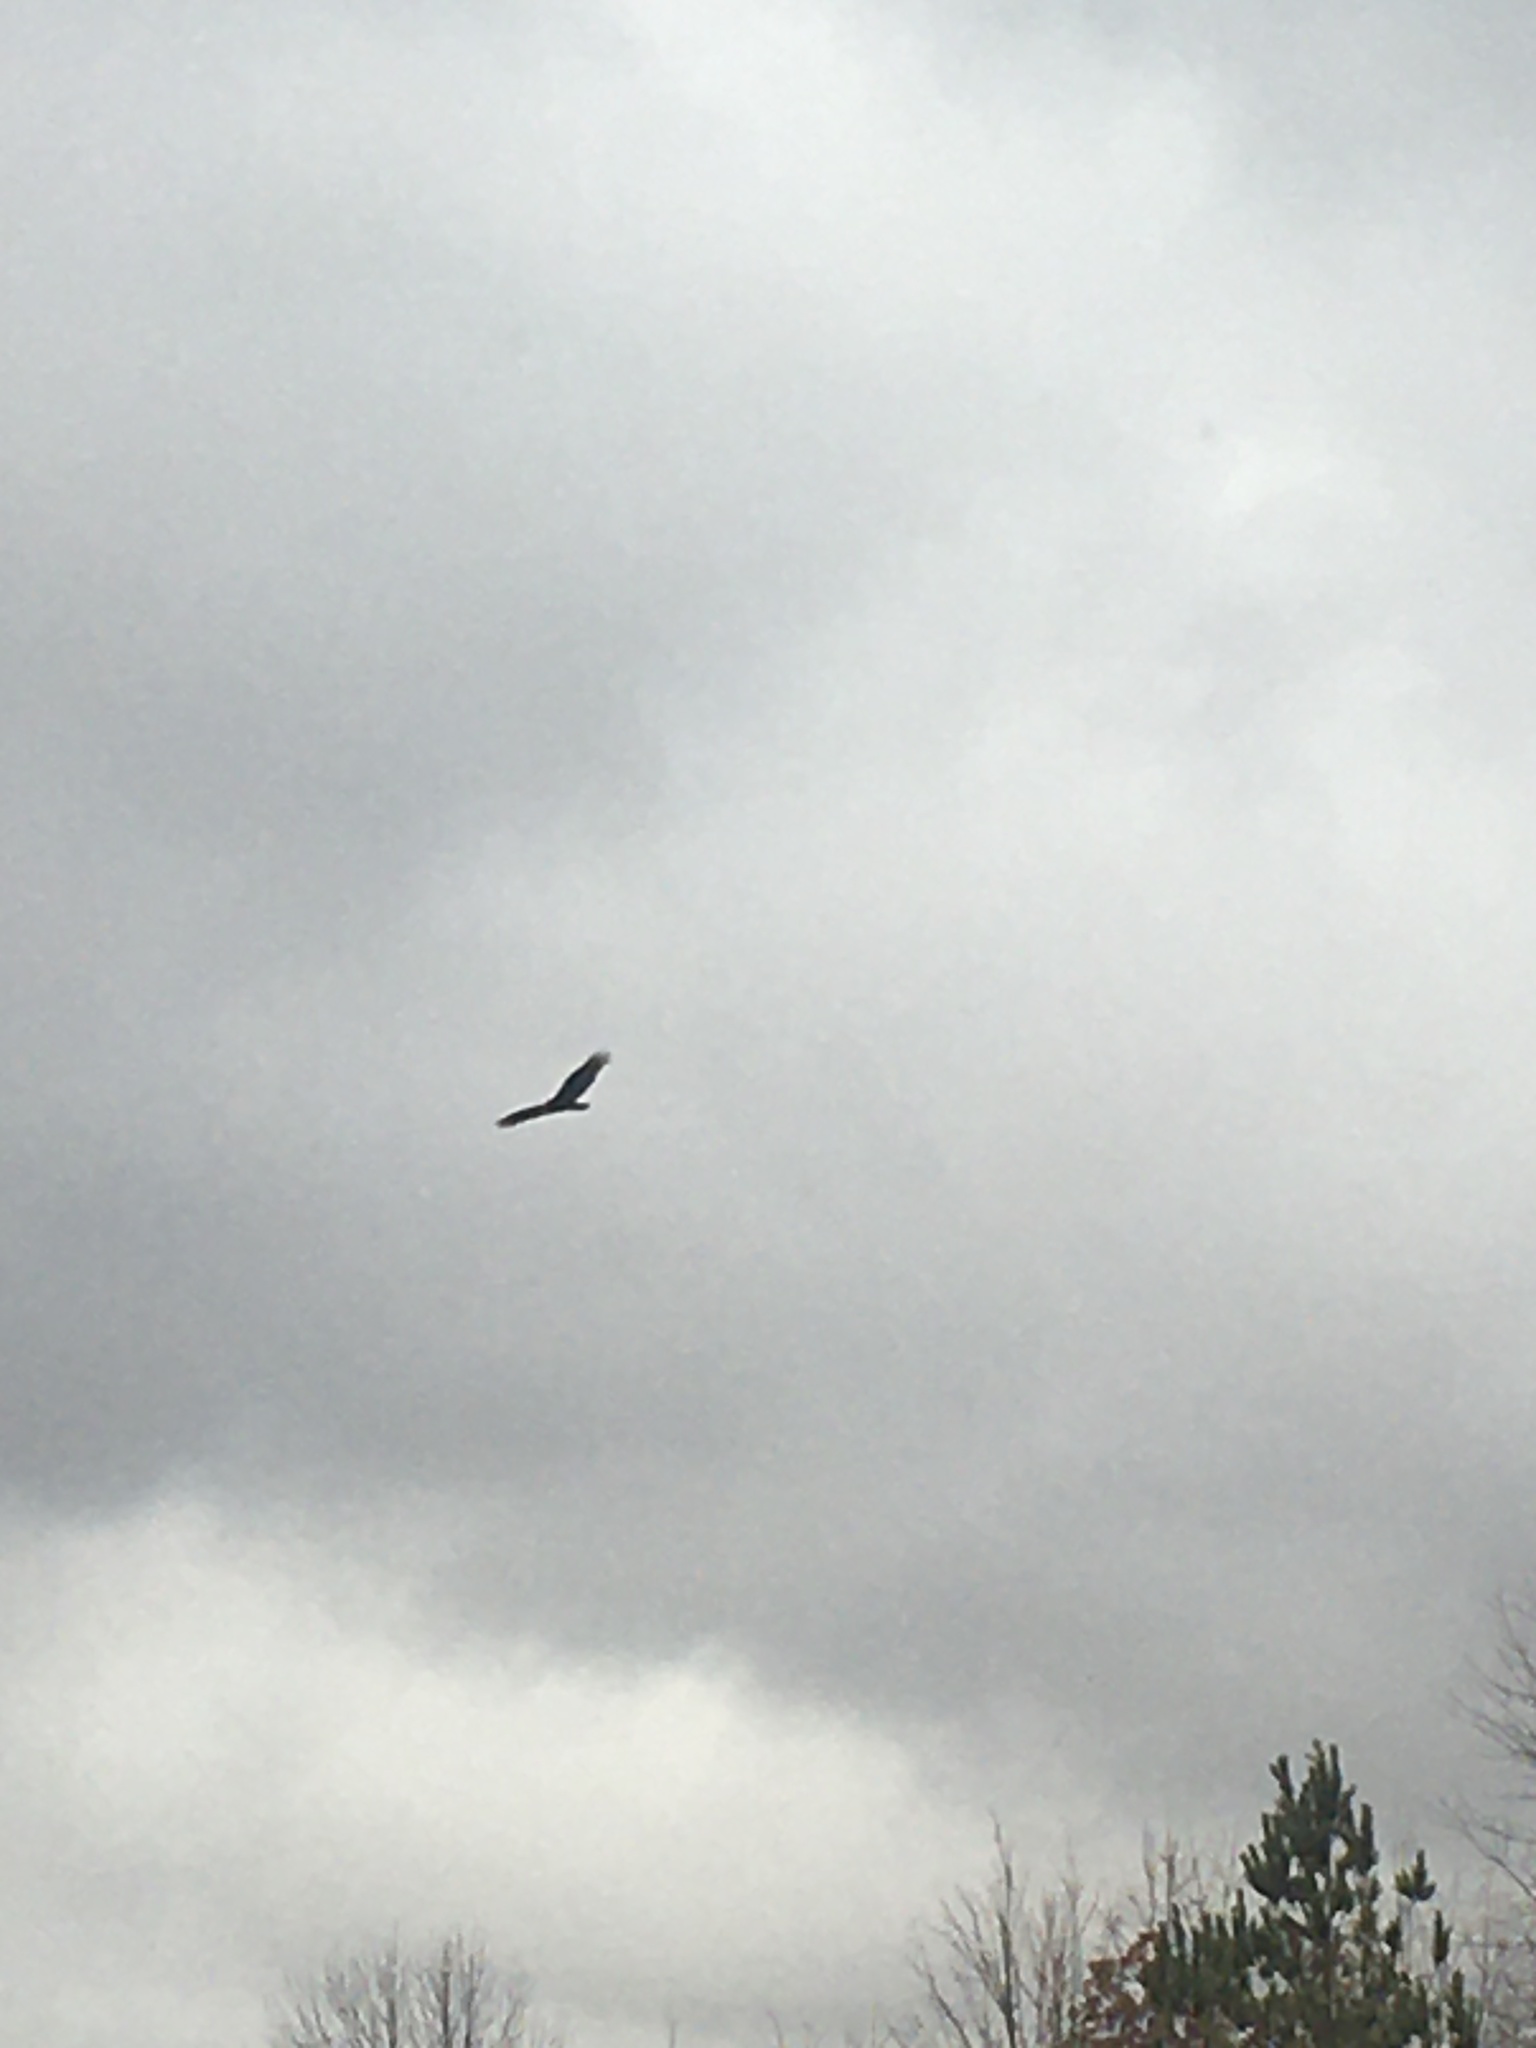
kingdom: Animalia
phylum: Chordata
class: Aves
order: Accipitriformes
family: Cathartidae
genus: Cathartes
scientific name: Cathartes aura
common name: Turkey vulture
